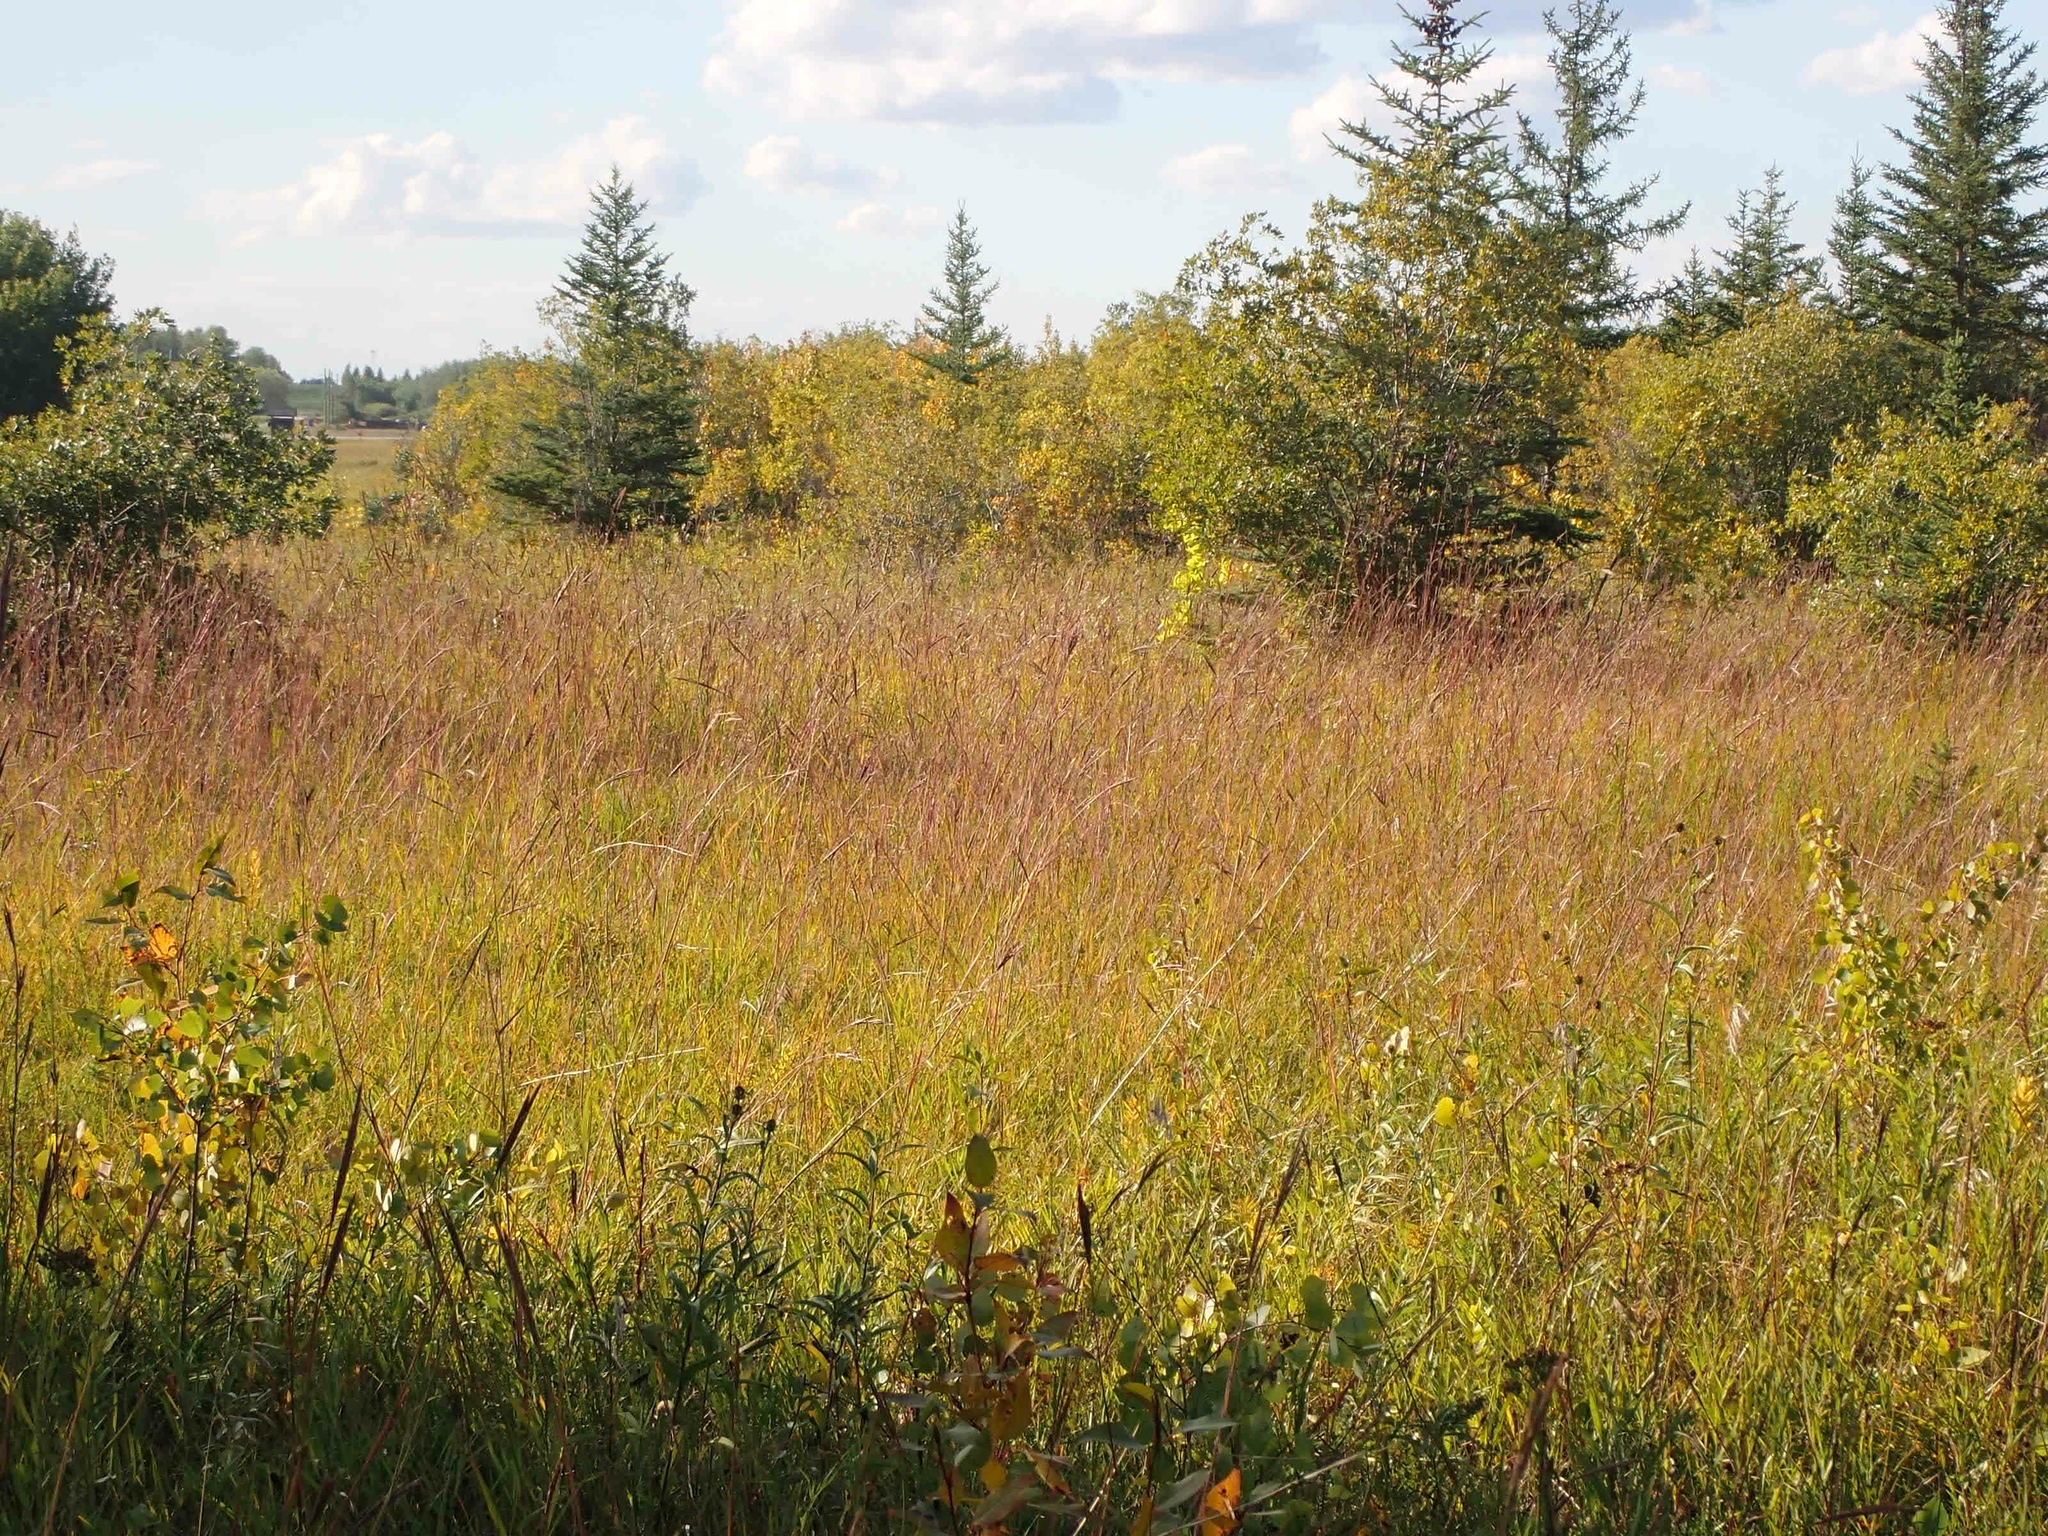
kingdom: Plantae
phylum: Tracheophyta
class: Liliopsida
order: Poales
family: Poaceae
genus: Andropogon
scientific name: Andropogon gerardi
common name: Big bluestem
